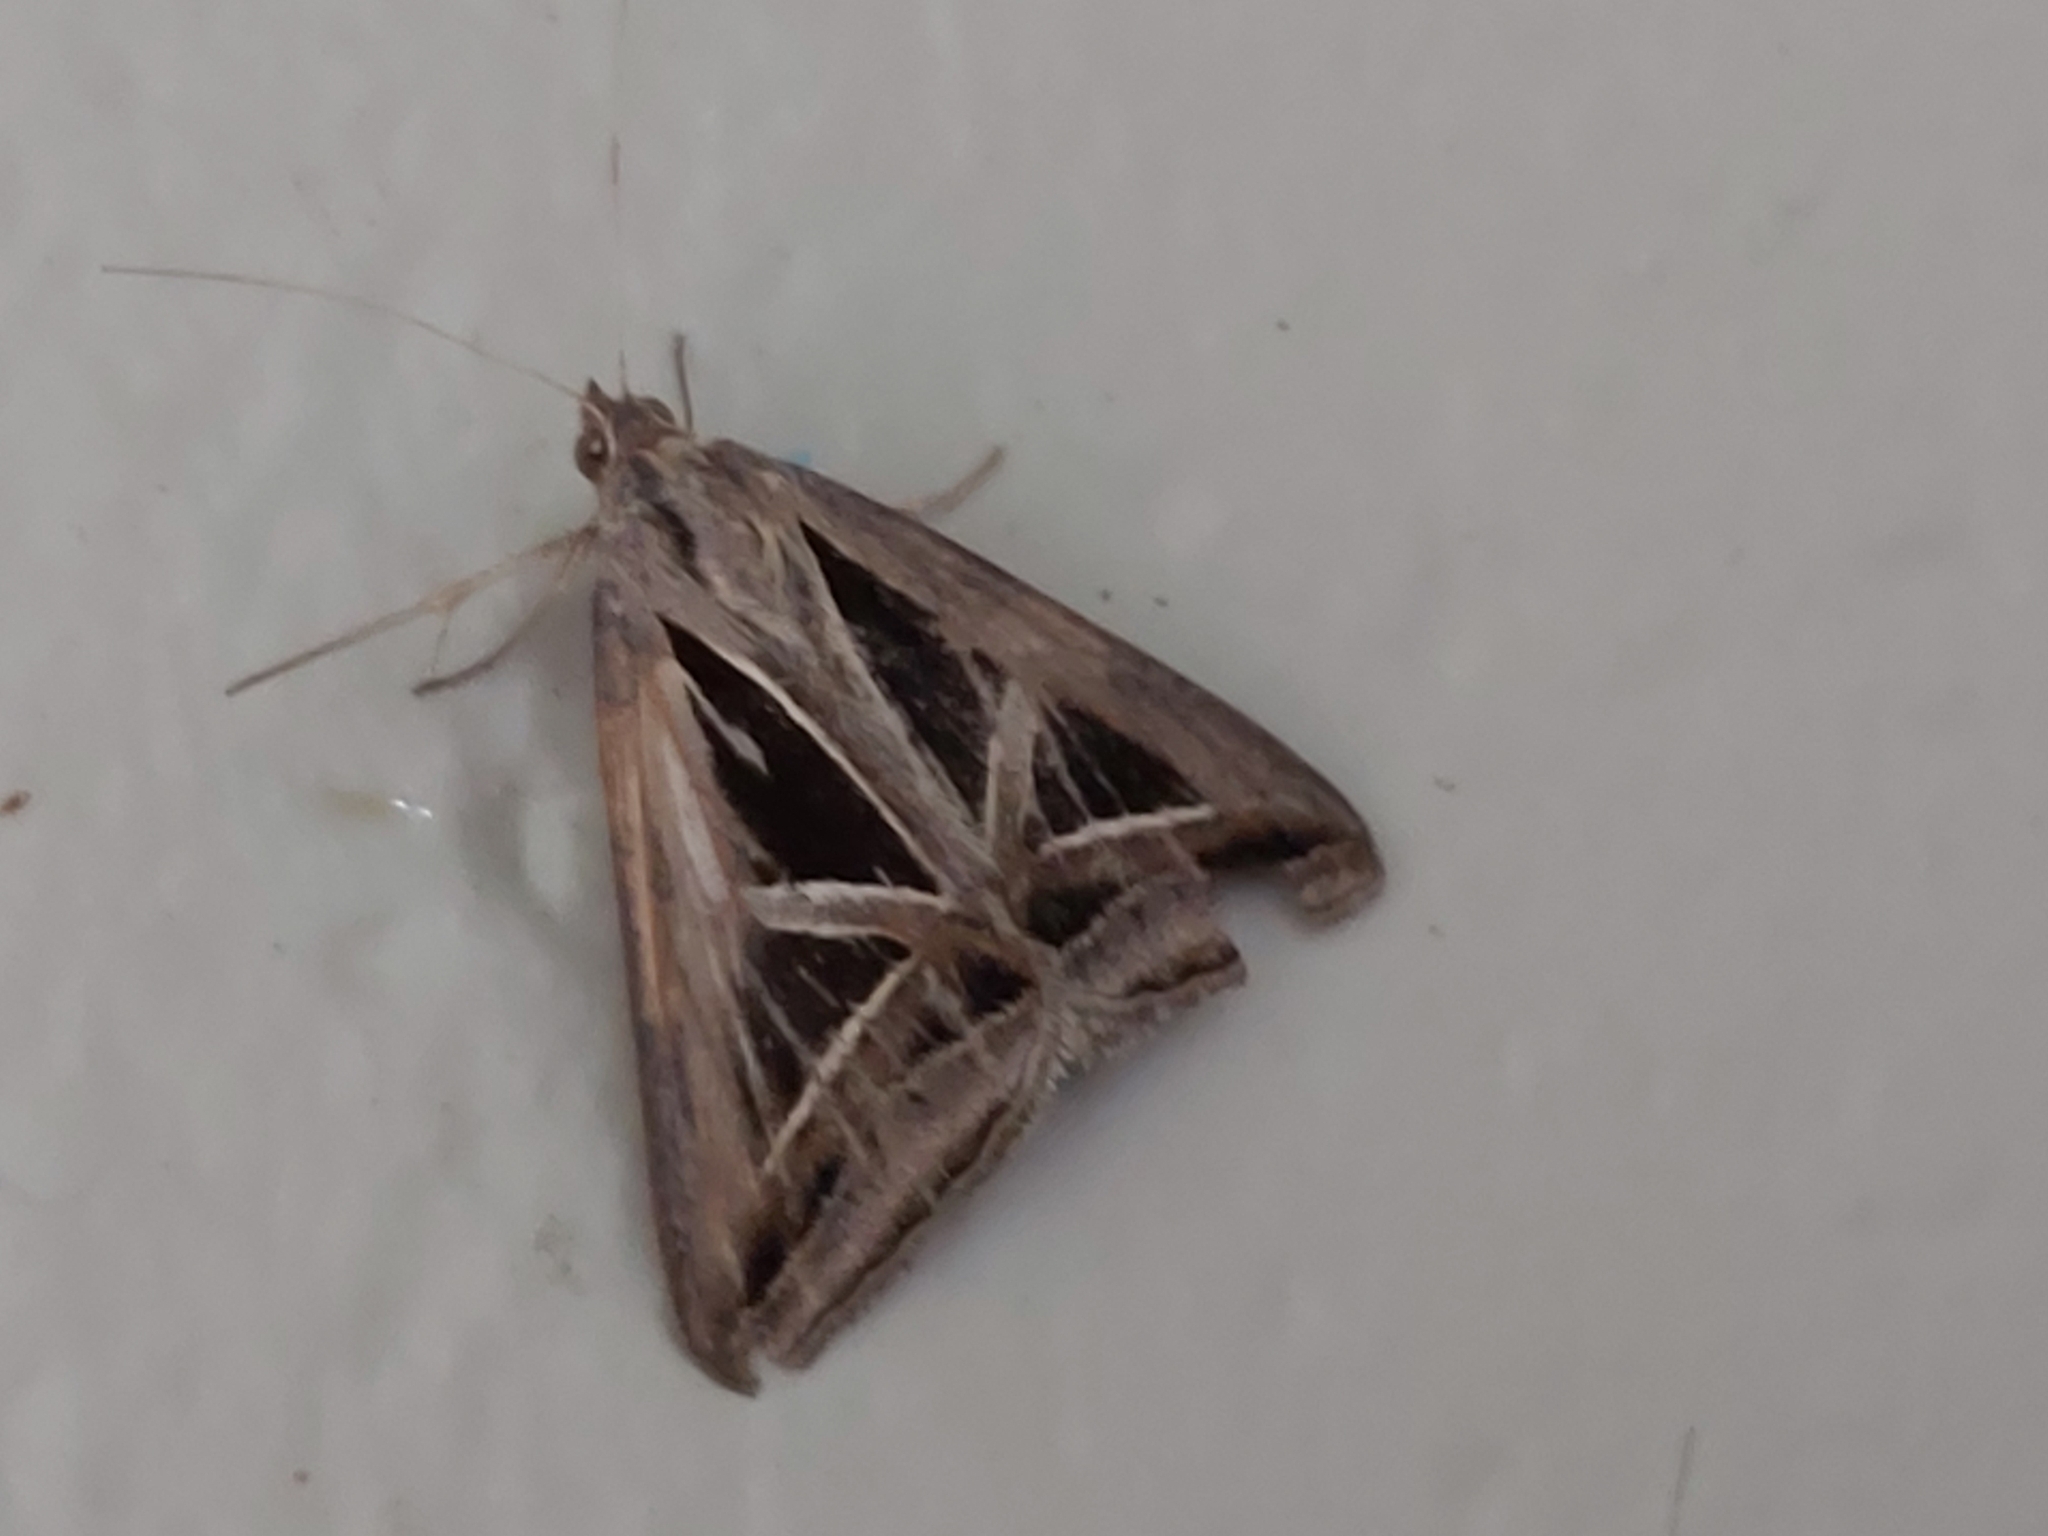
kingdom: Animalia
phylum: Arthropoda
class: Insecta
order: Lepidoptera
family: Erebidae
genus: Trigonodes
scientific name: Trigonodes hyppasia
